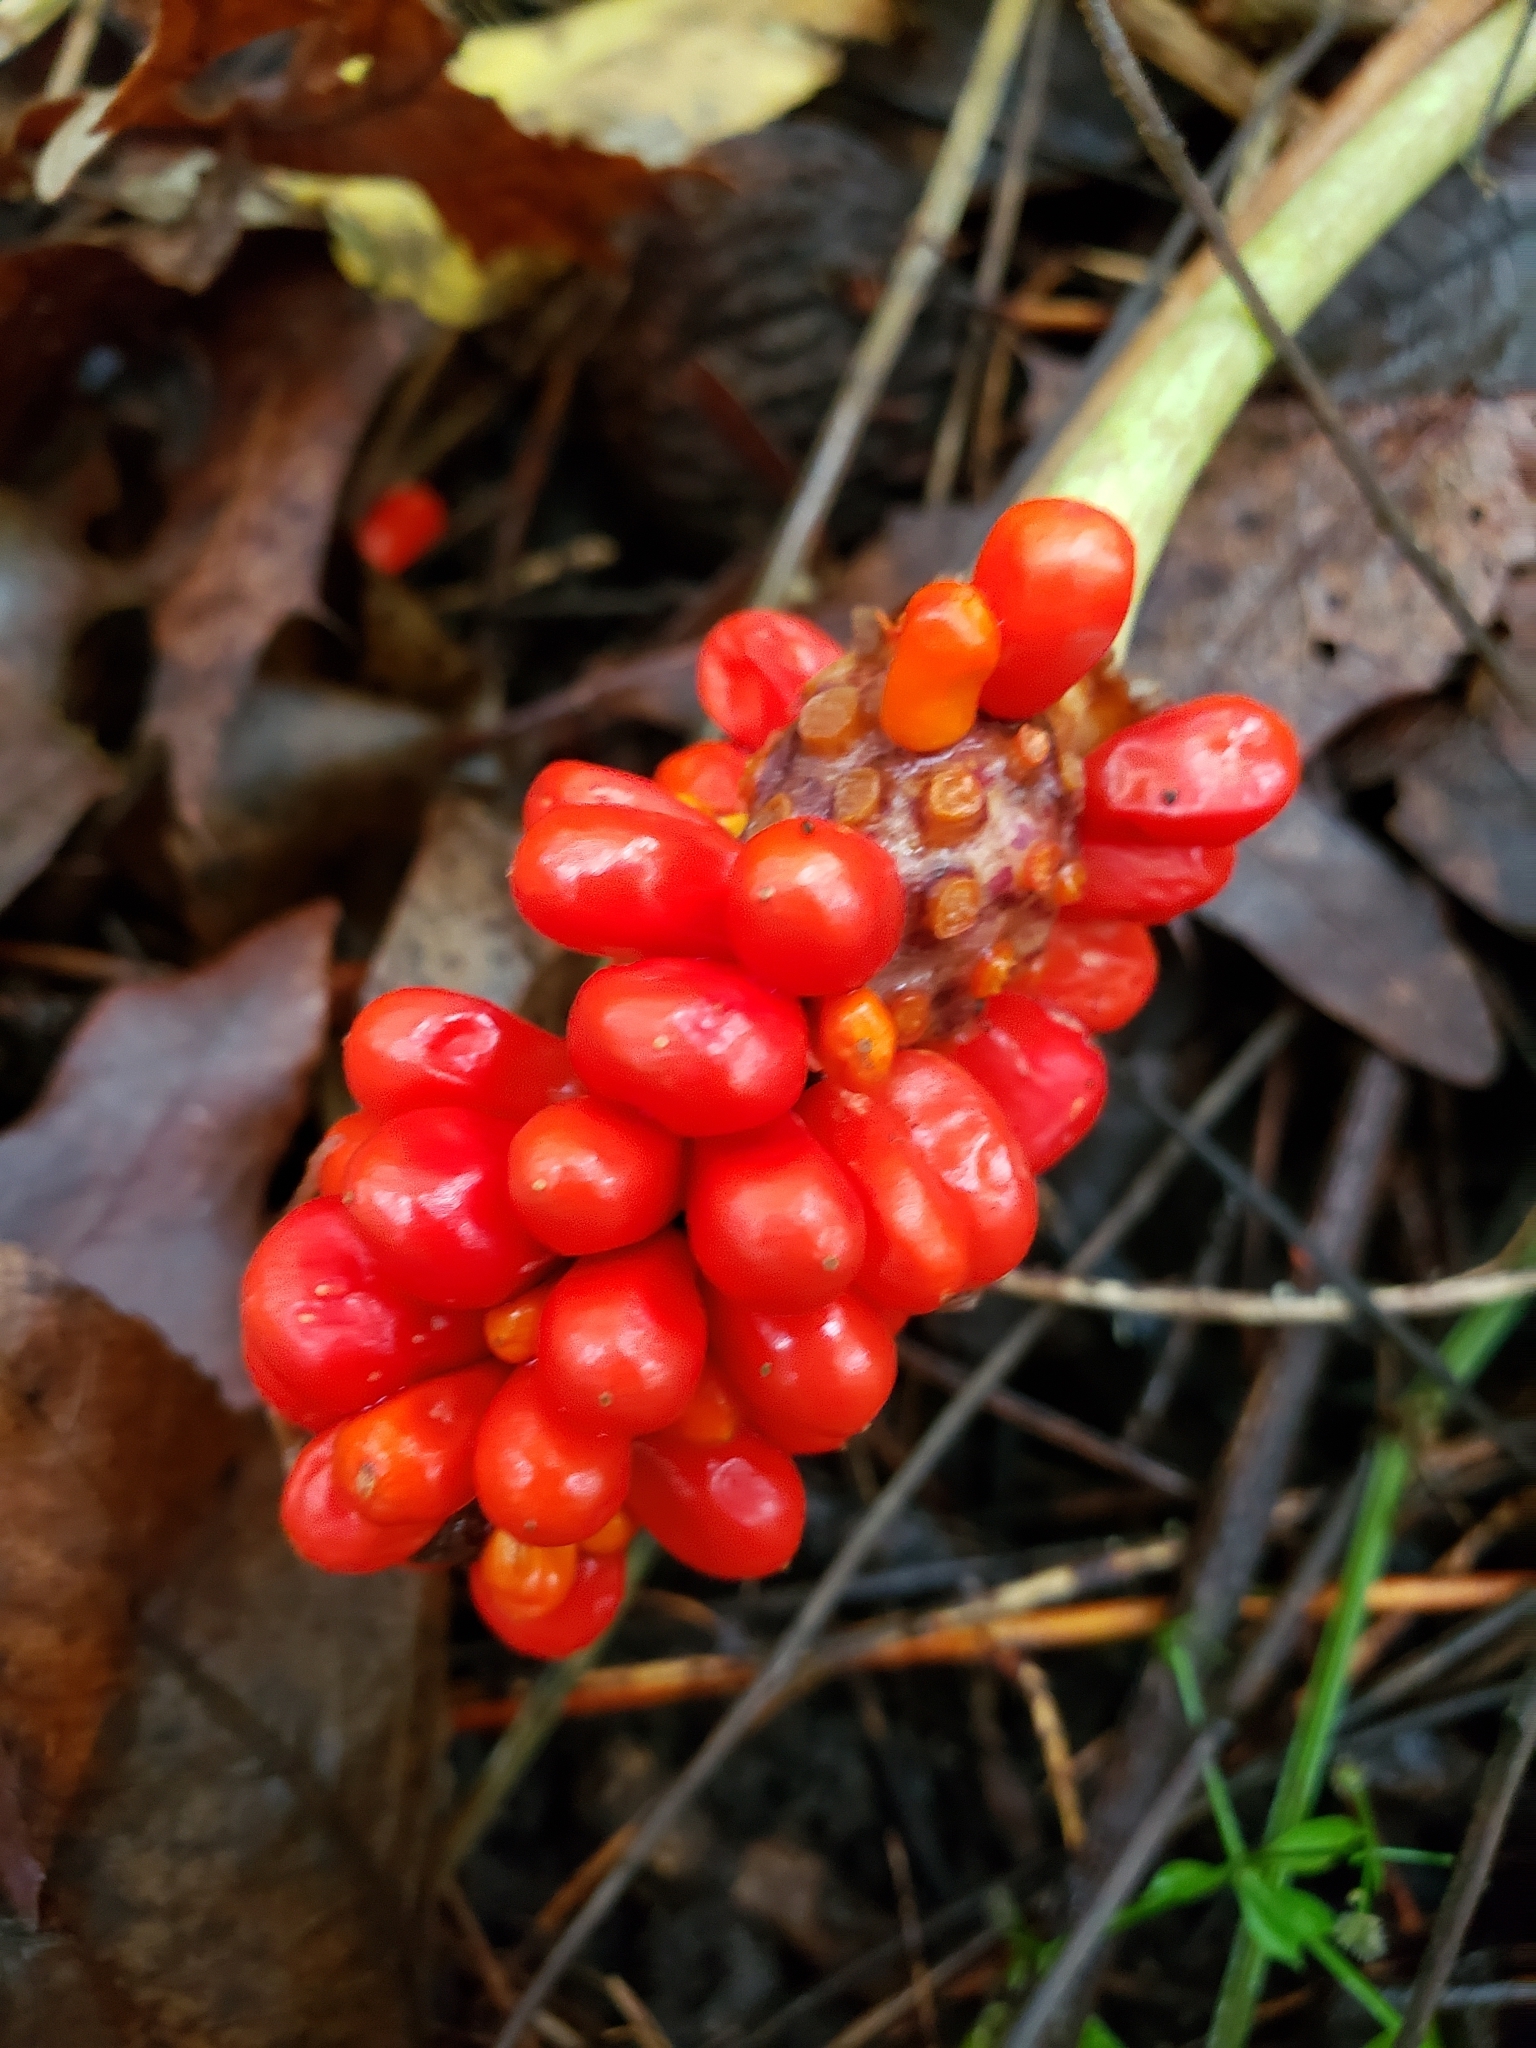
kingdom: Plantae
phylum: Tracheophyta
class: Liliopsida
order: Alismatales
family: Araceae
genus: Arisaema
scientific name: Arisaema triphyllum
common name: Jack-in-the-pulpit
